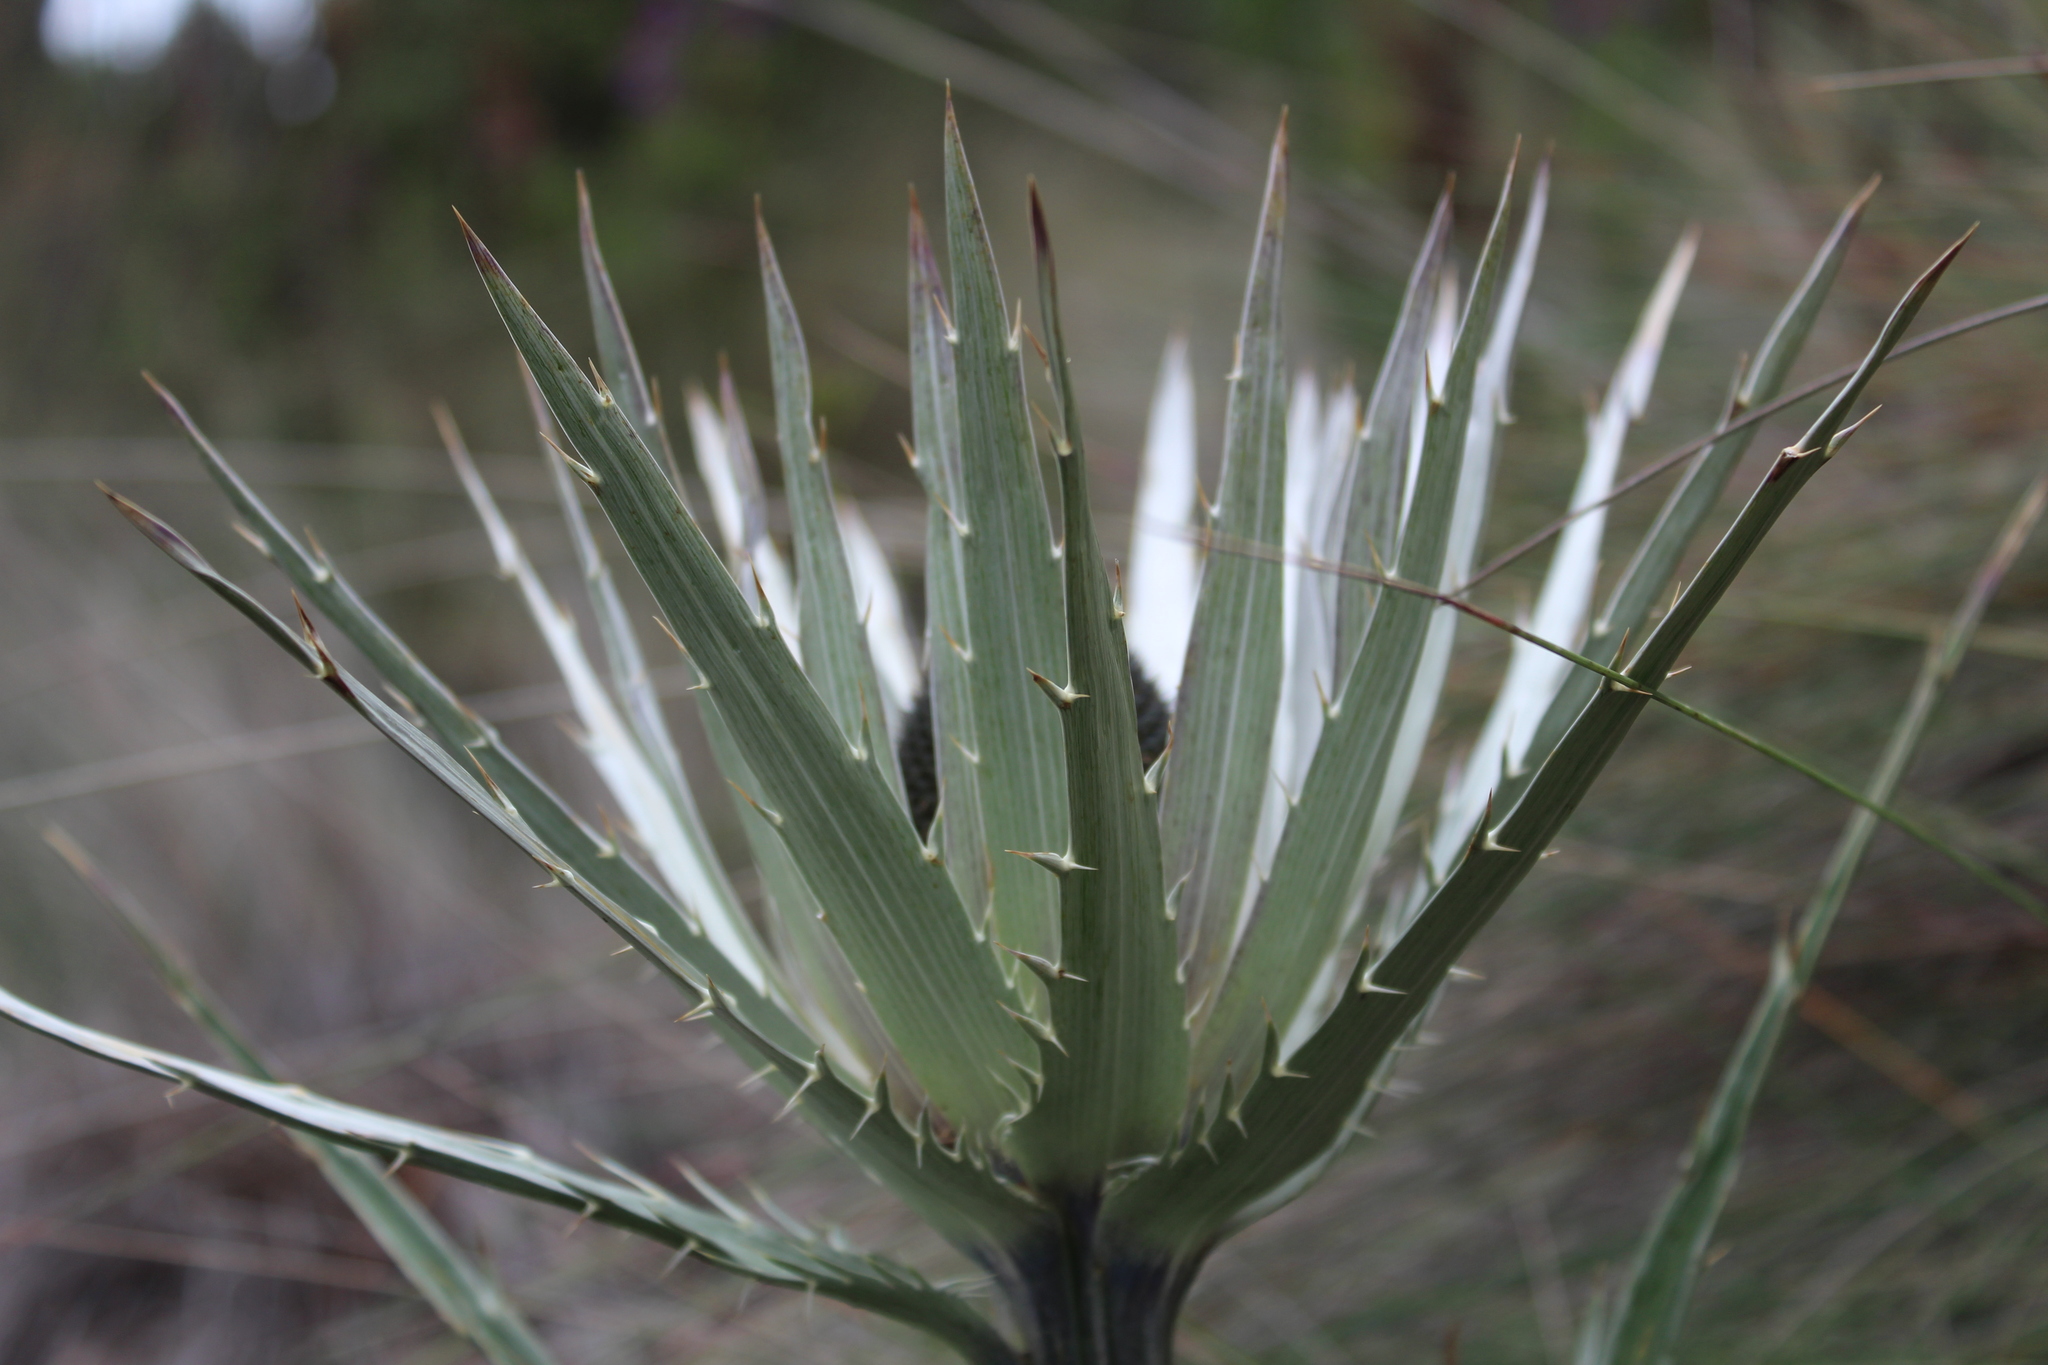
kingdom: Plantae
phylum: Tracheophyta
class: Magnoliopsida
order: Apiales
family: Apiaceae
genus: Eryngium
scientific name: Eryngium proteiflorum
